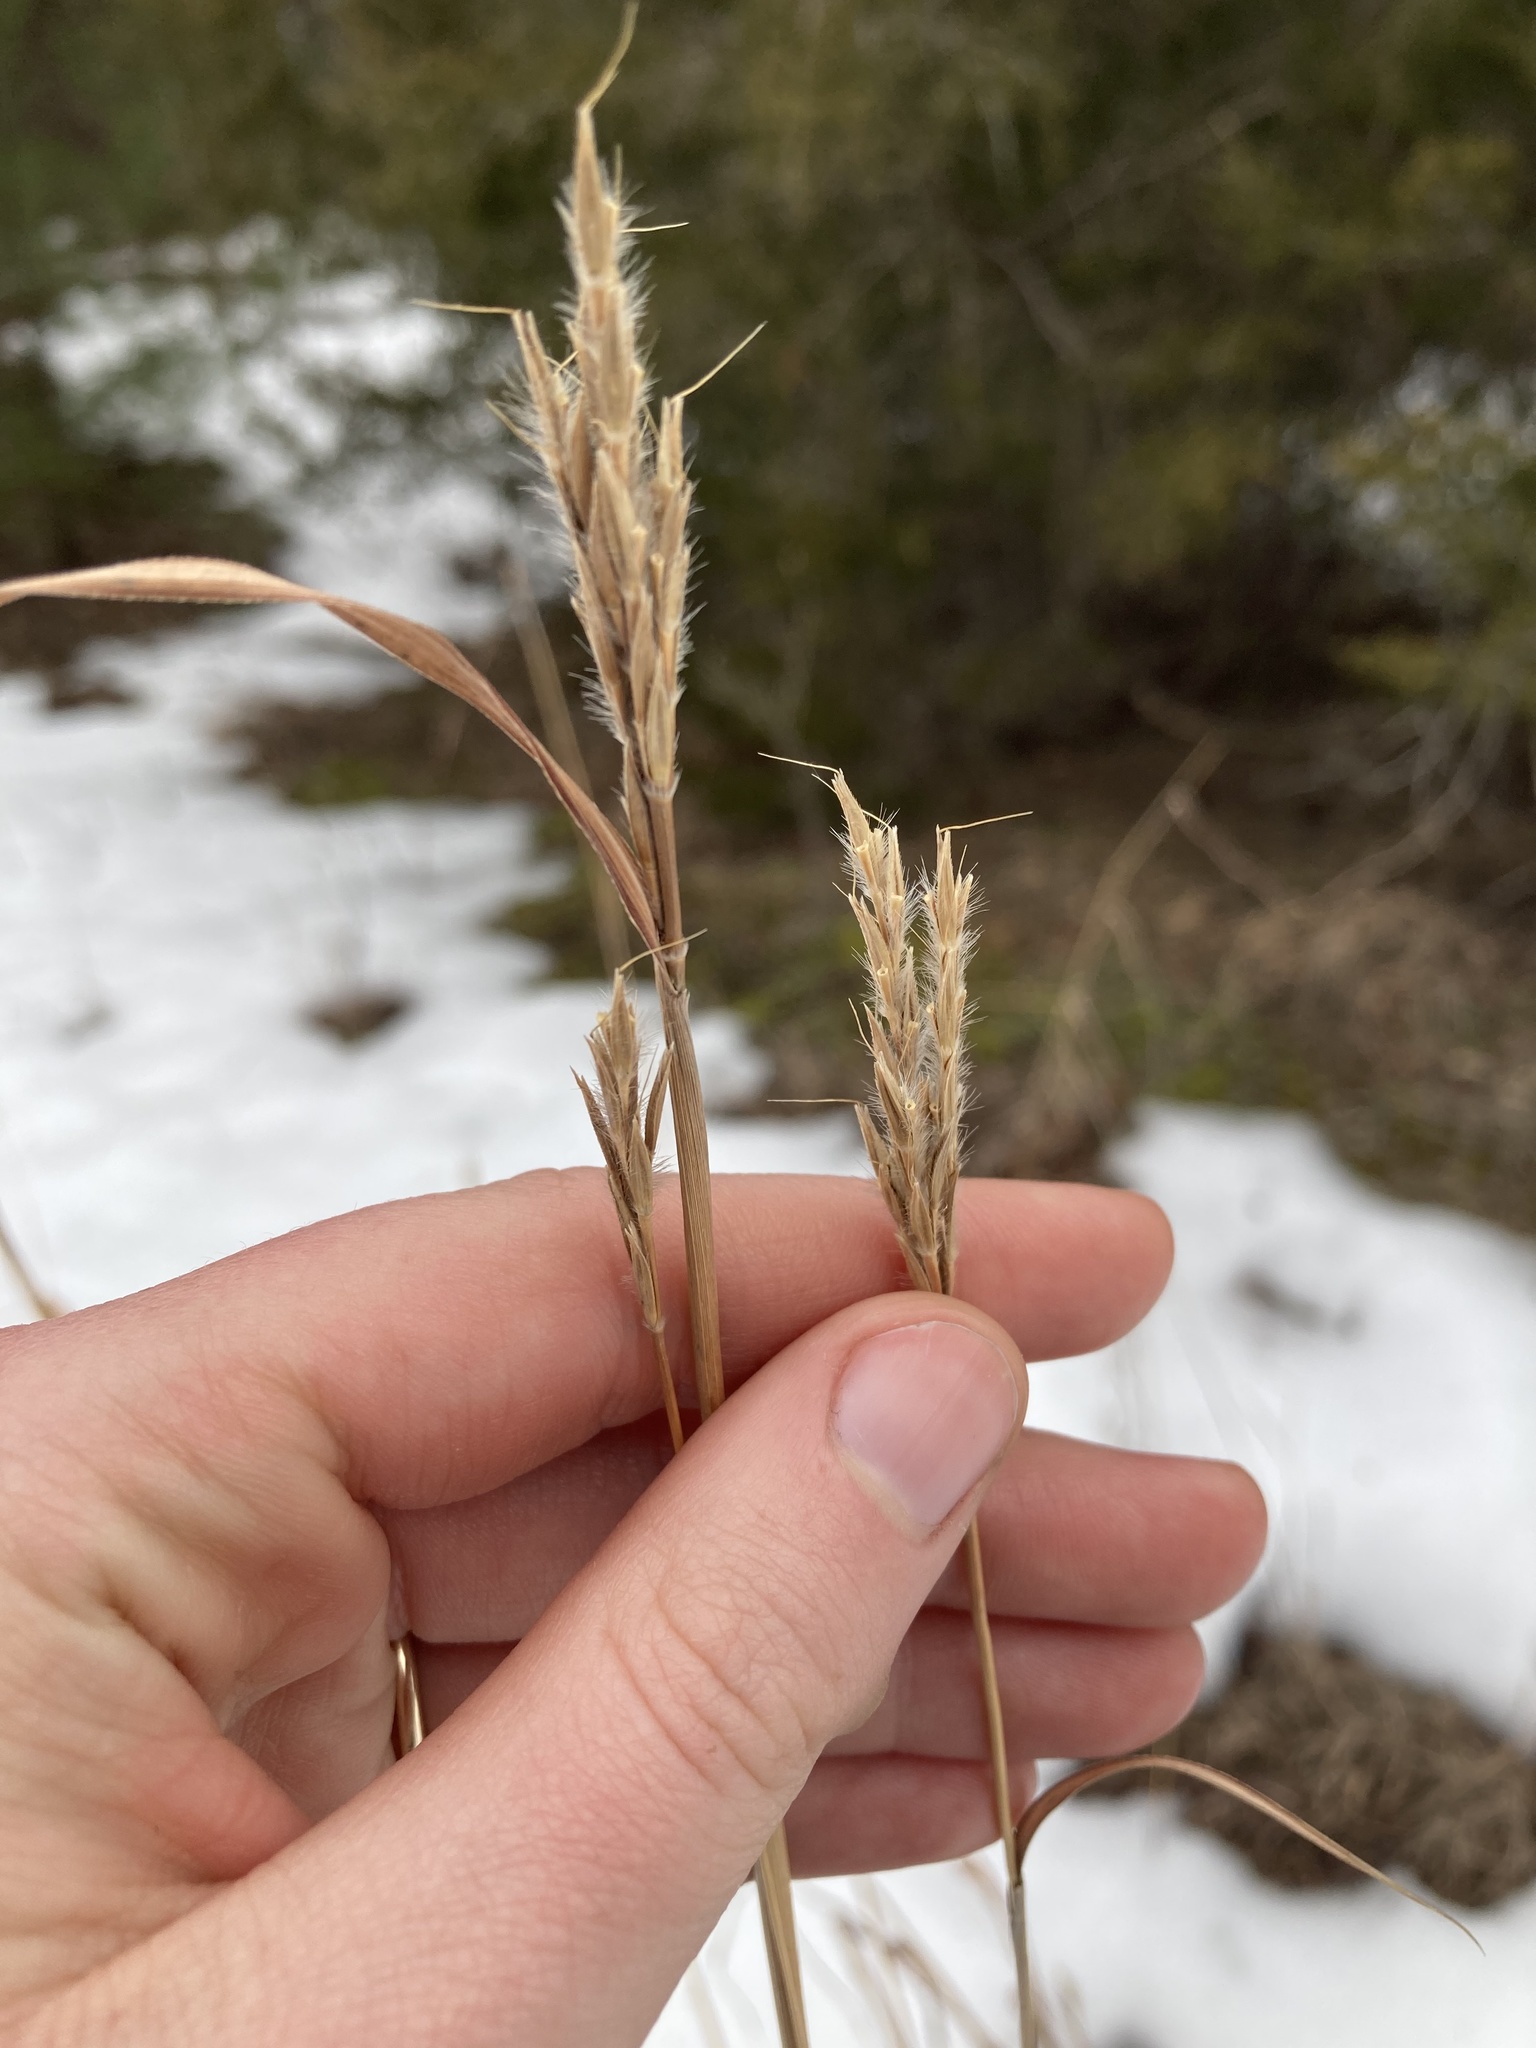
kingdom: Plantae
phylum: Tracheophyta
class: Liliopsida
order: Poales
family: Poaceae
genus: Andropogon
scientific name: Andropogon gerardi
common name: Big bluestem
